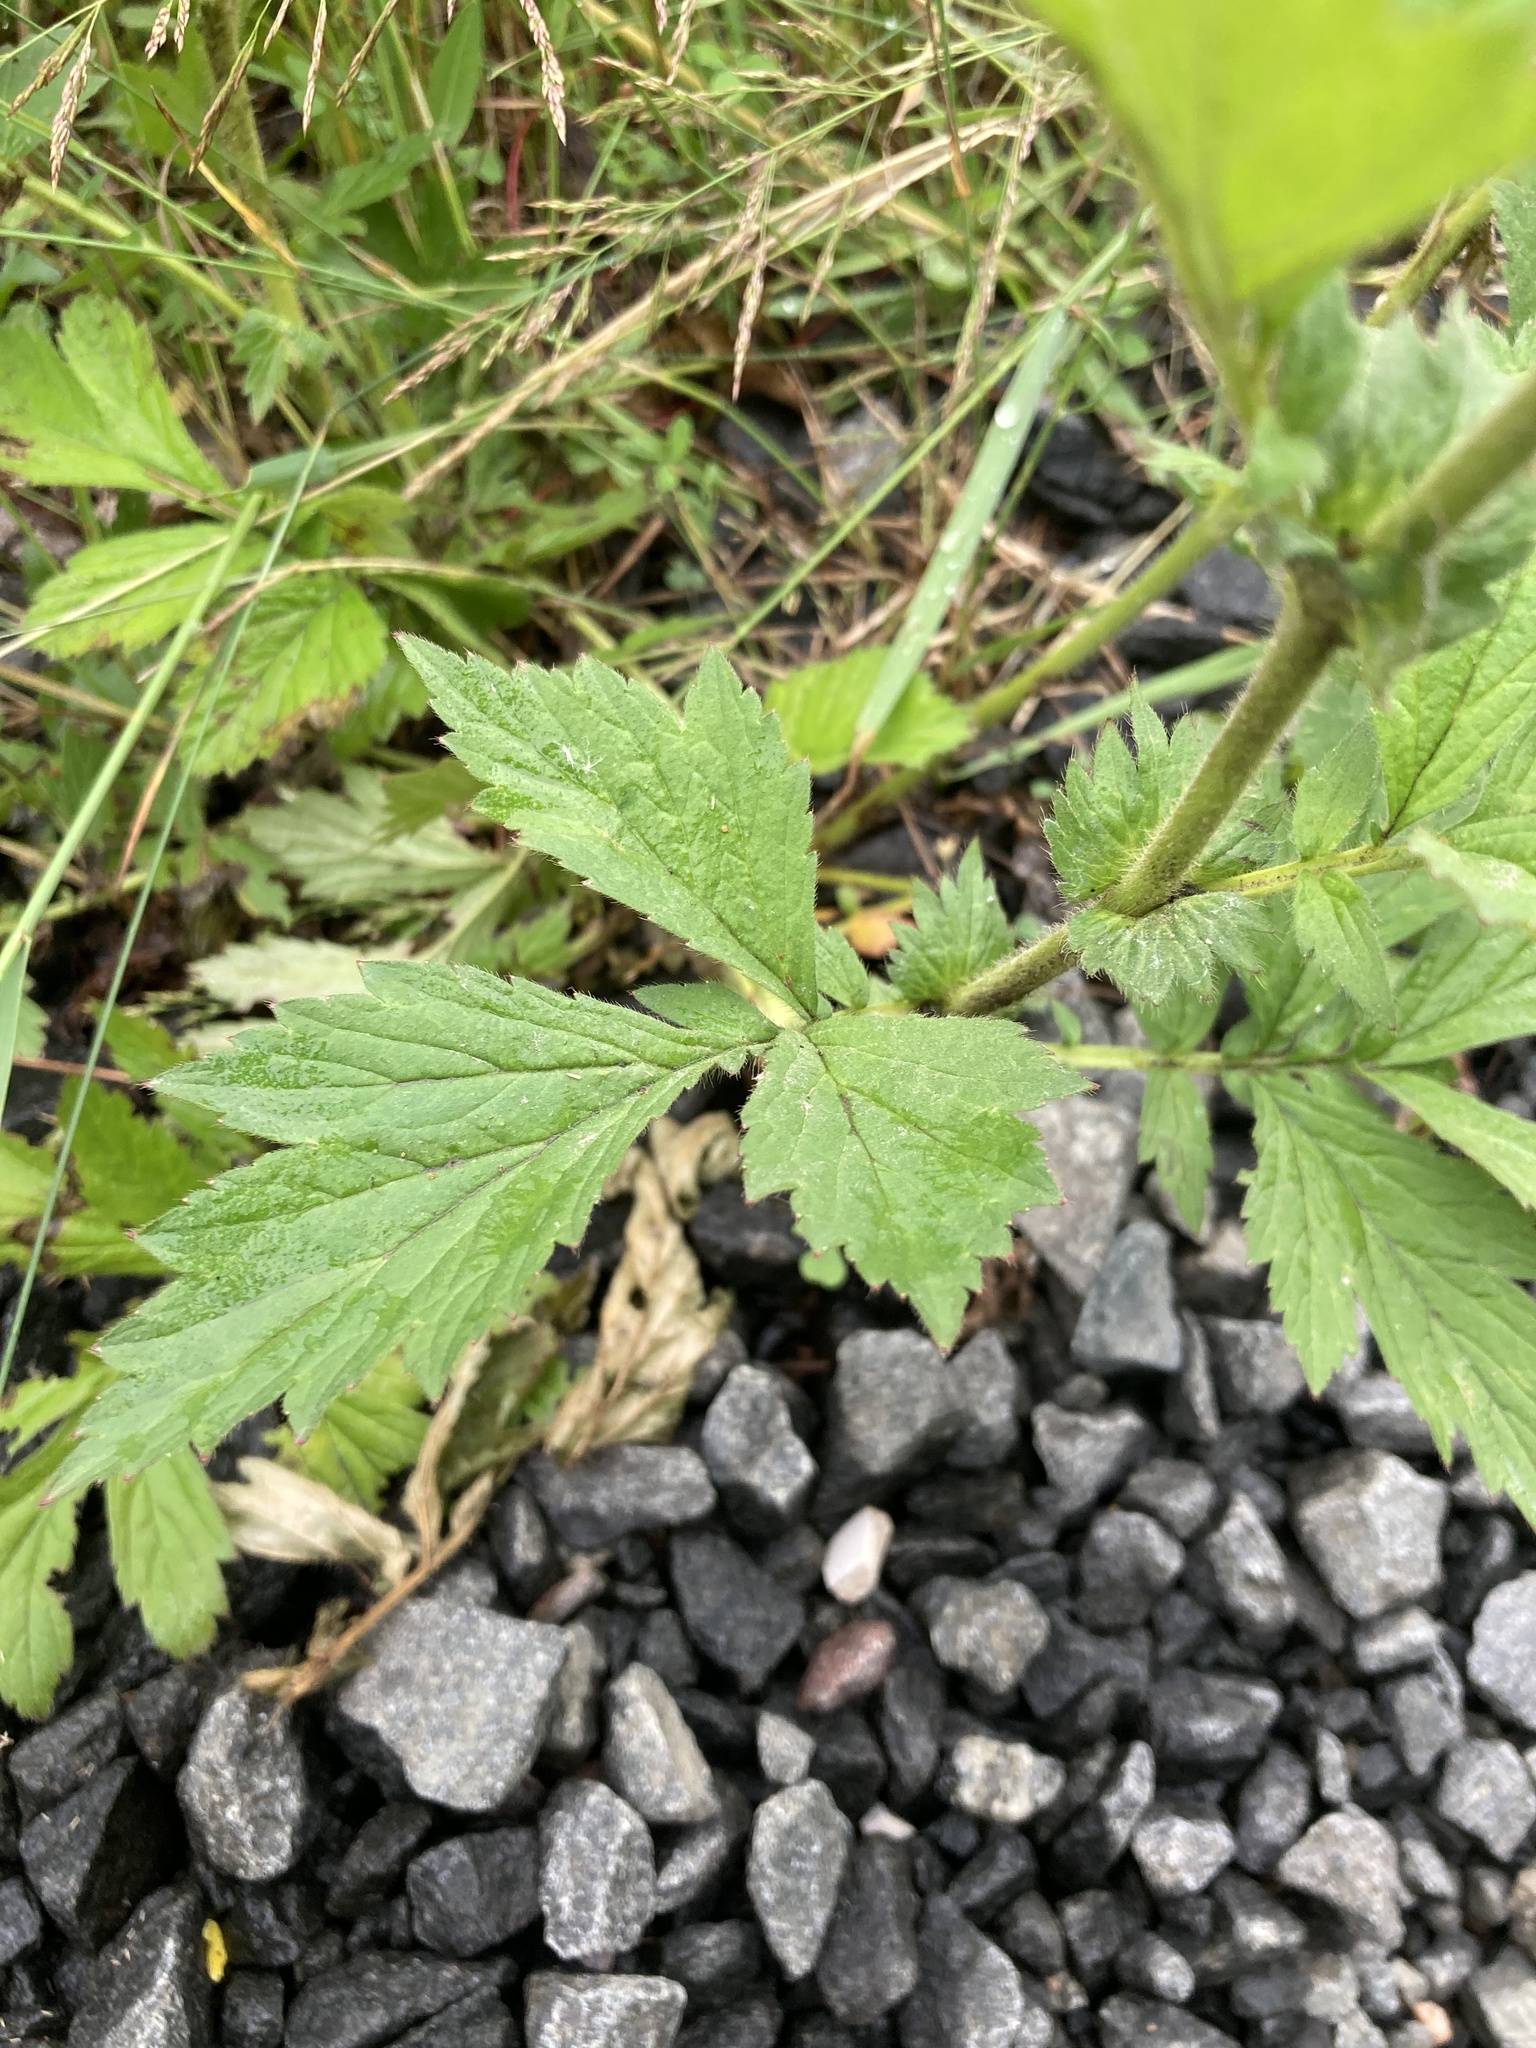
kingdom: Plantae
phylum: Tracheophyta
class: Magnoliopsida
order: Rosales
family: Rosaceae
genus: Geum
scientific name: Geum aleppicum
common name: Yellow avens
